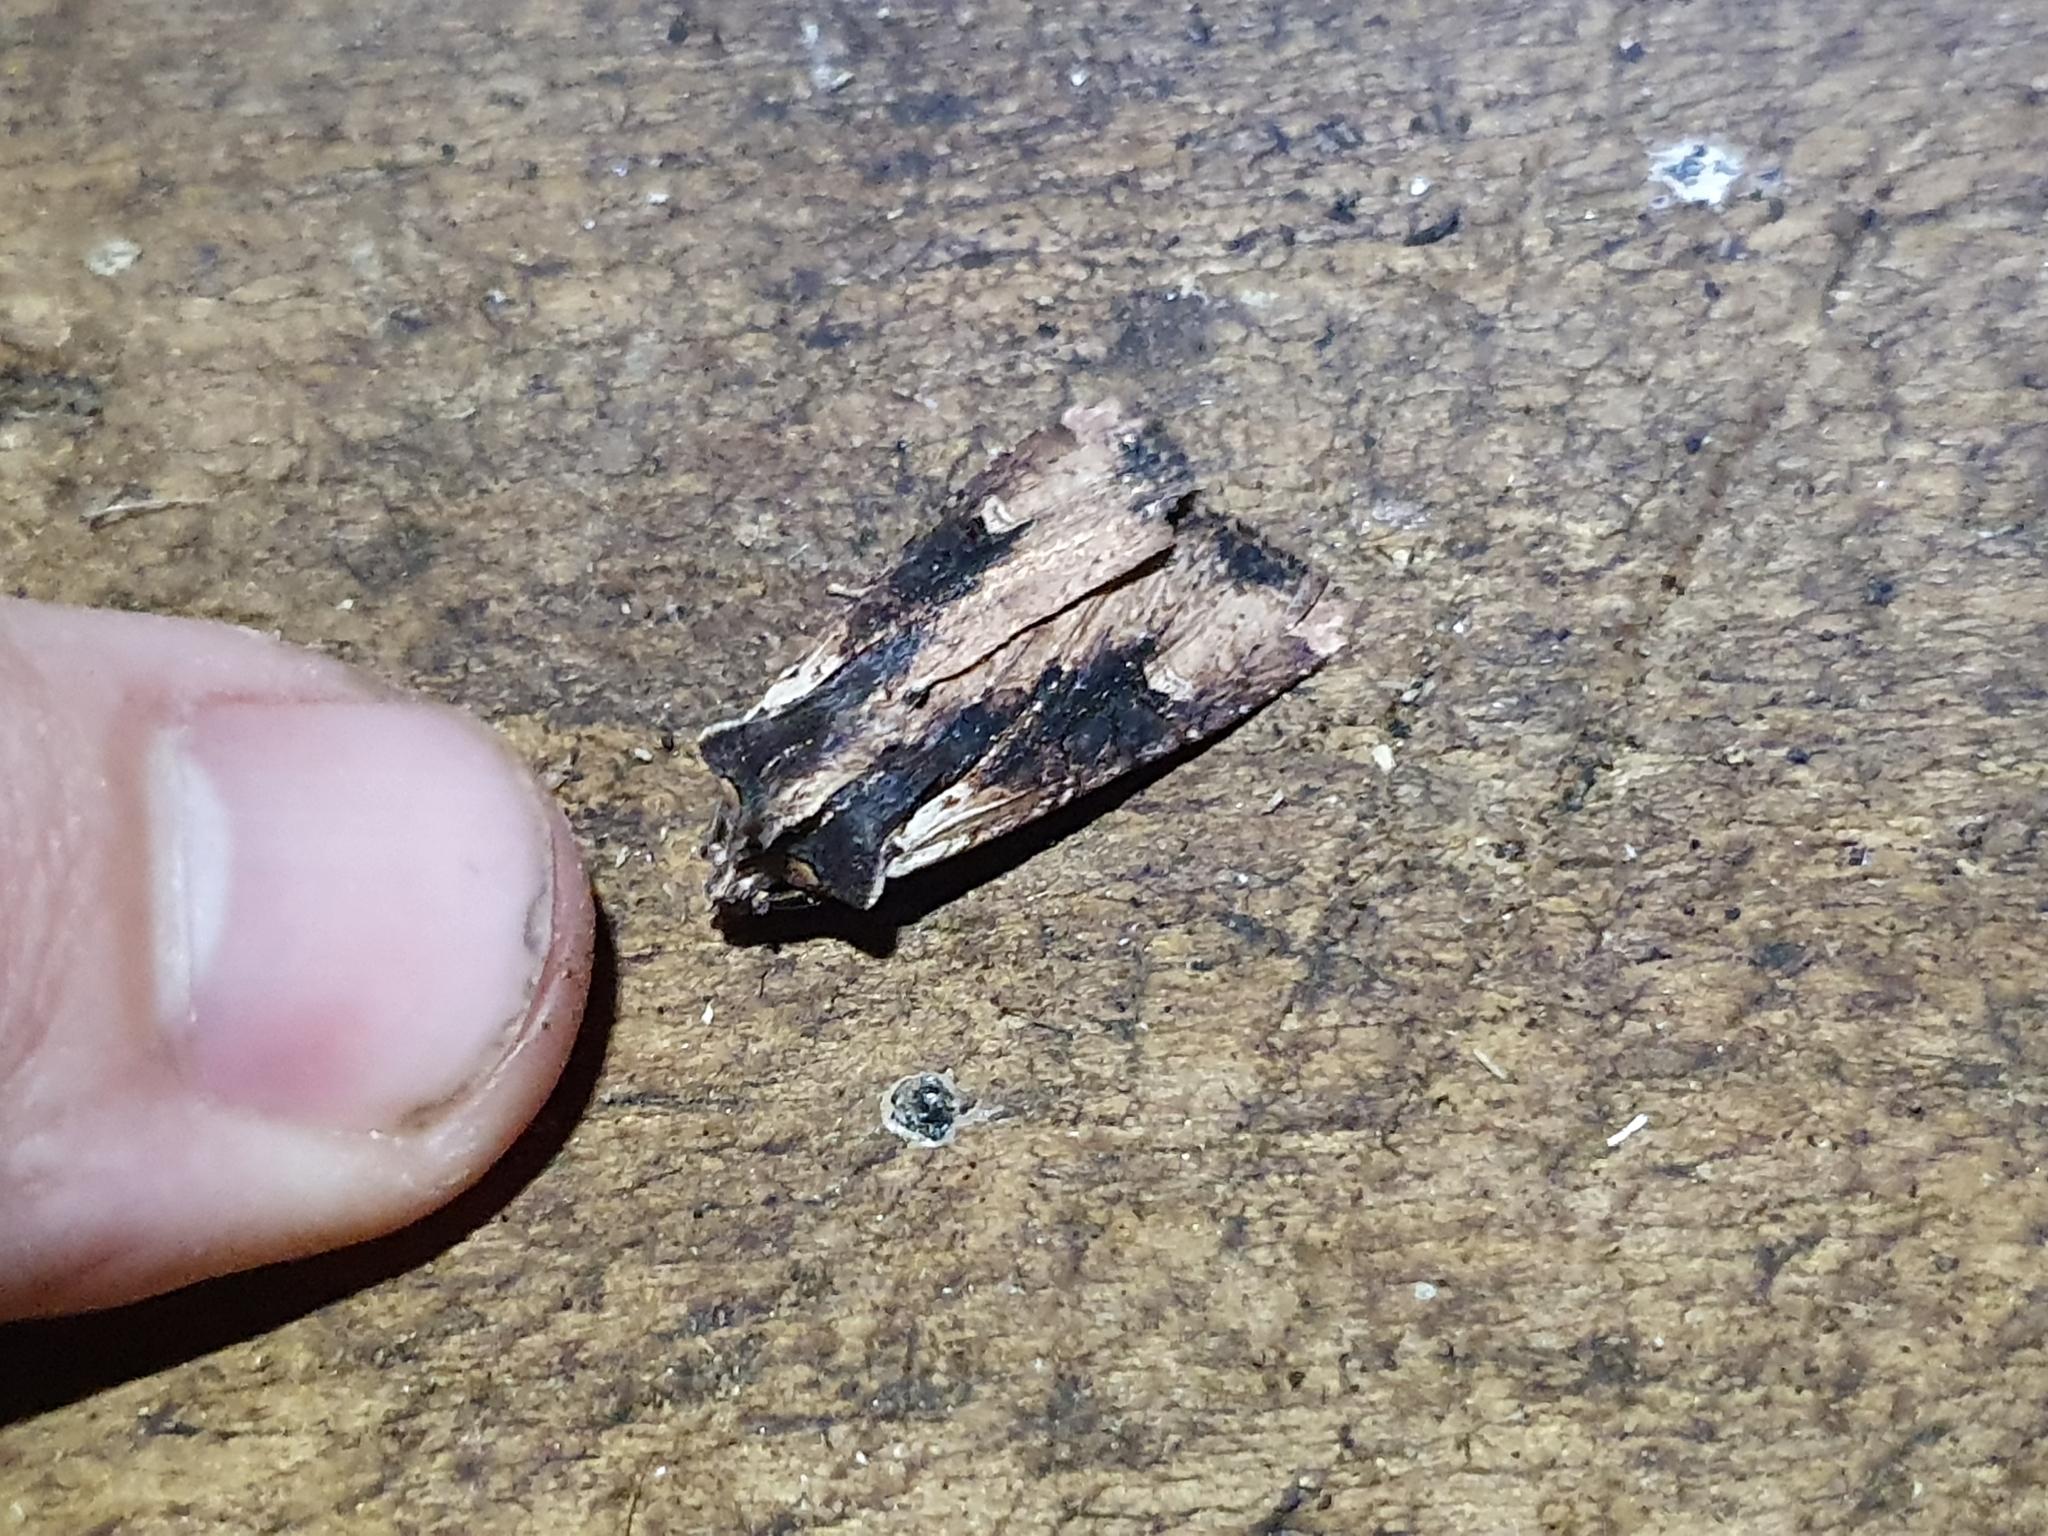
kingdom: Animalia
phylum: Arthropoda
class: Insecta
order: Lepidoptera
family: Noctuidae
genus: Ichneutica
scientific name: Ichneutica omoplaca
